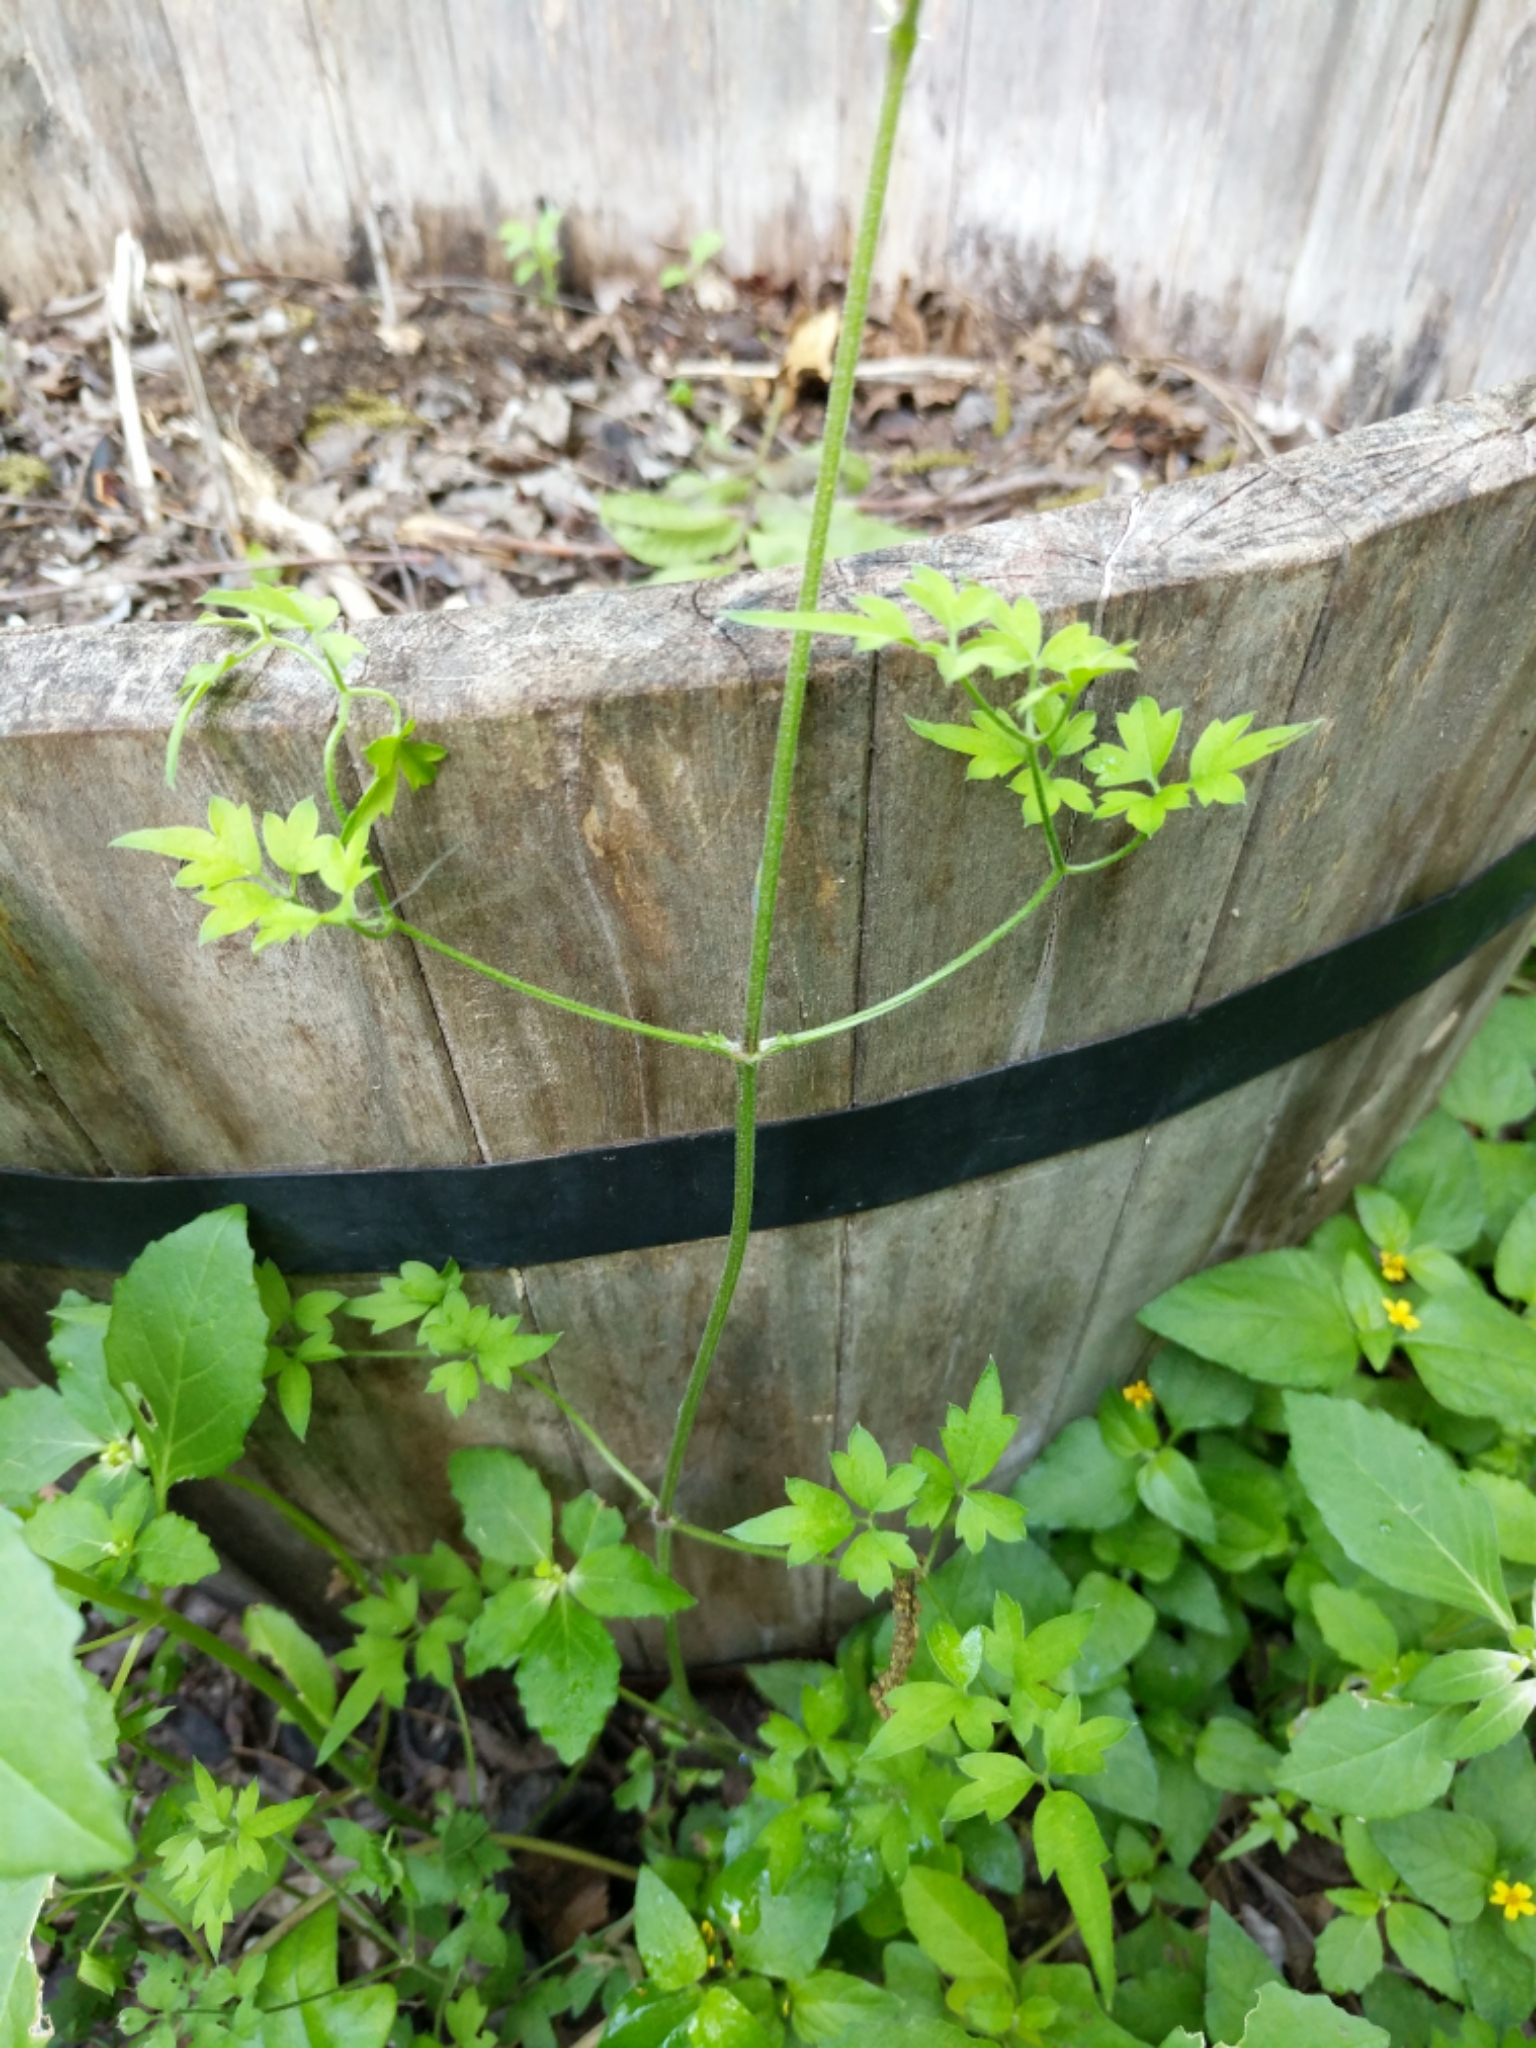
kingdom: Plantae
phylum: Tracheophyta
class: Magnoliopsida
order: Ranunculales
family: Ranunculaceae
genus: Clematis
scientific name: Clematis drummondii
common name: Texas virgin's bower
